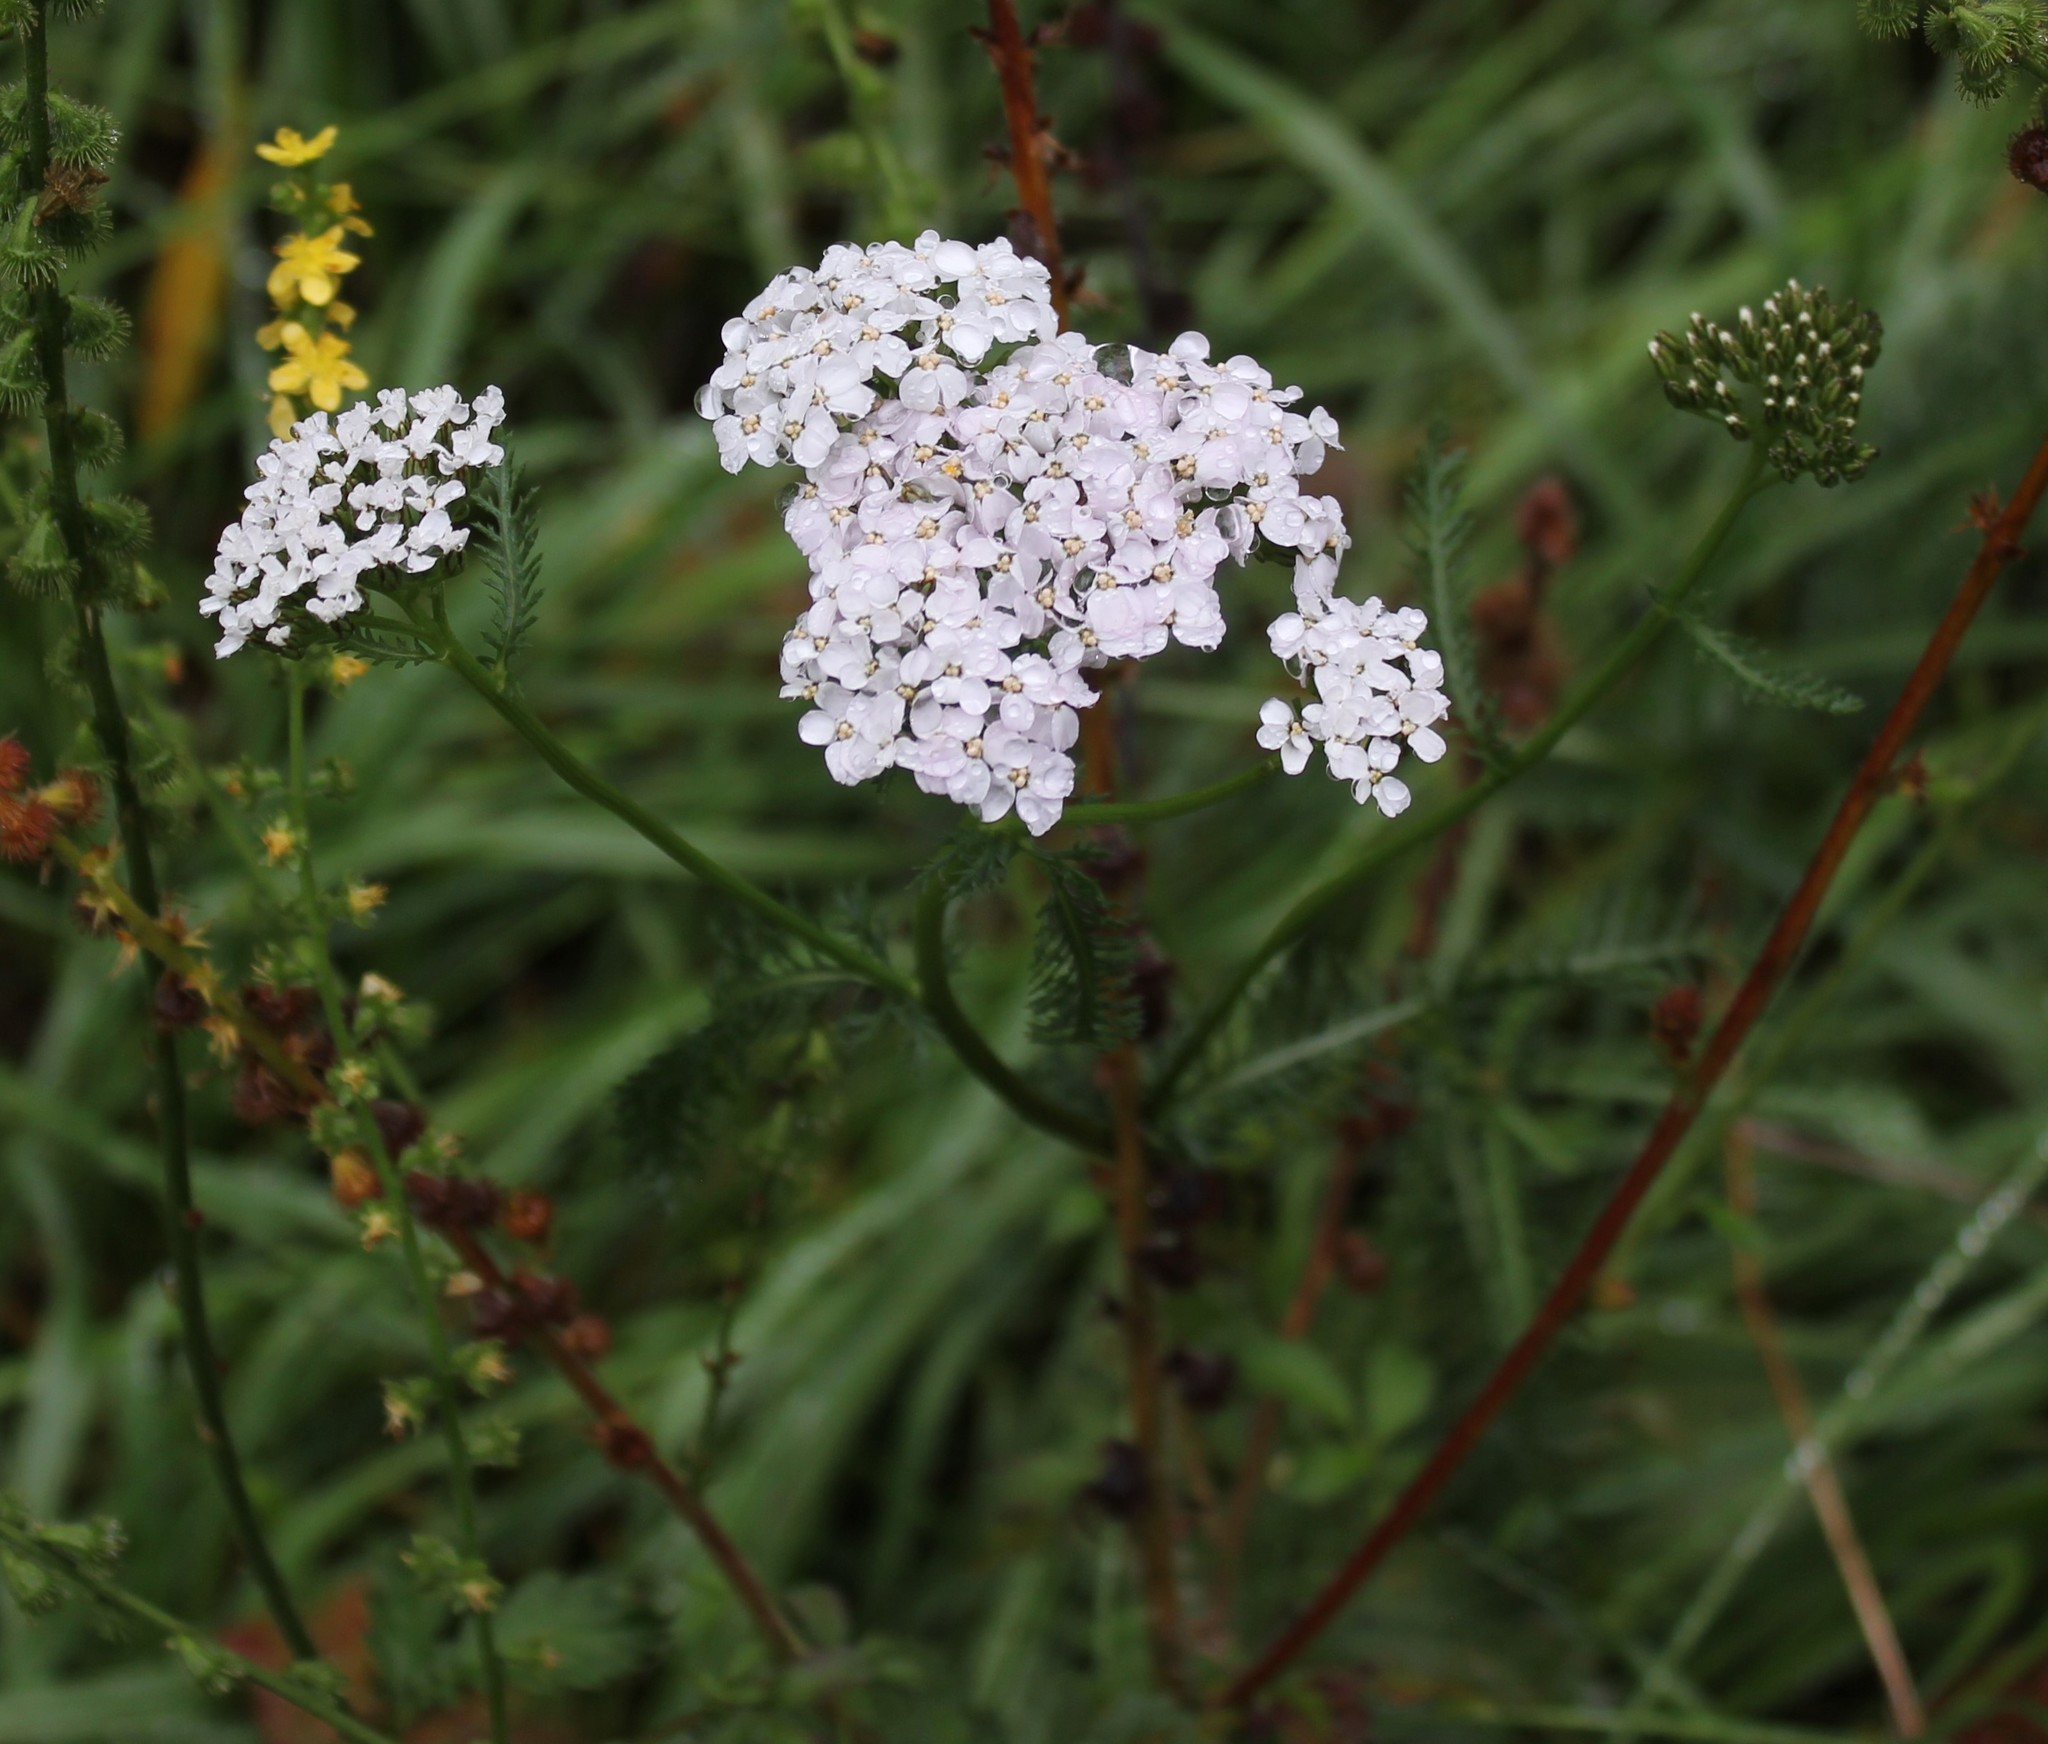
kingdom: Plantae
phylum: Tracheophyta
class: Magnoliopsida
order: Asterales
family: Asteraceae
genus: Achillea
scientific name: Achillea millefolium
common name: Yarrow
